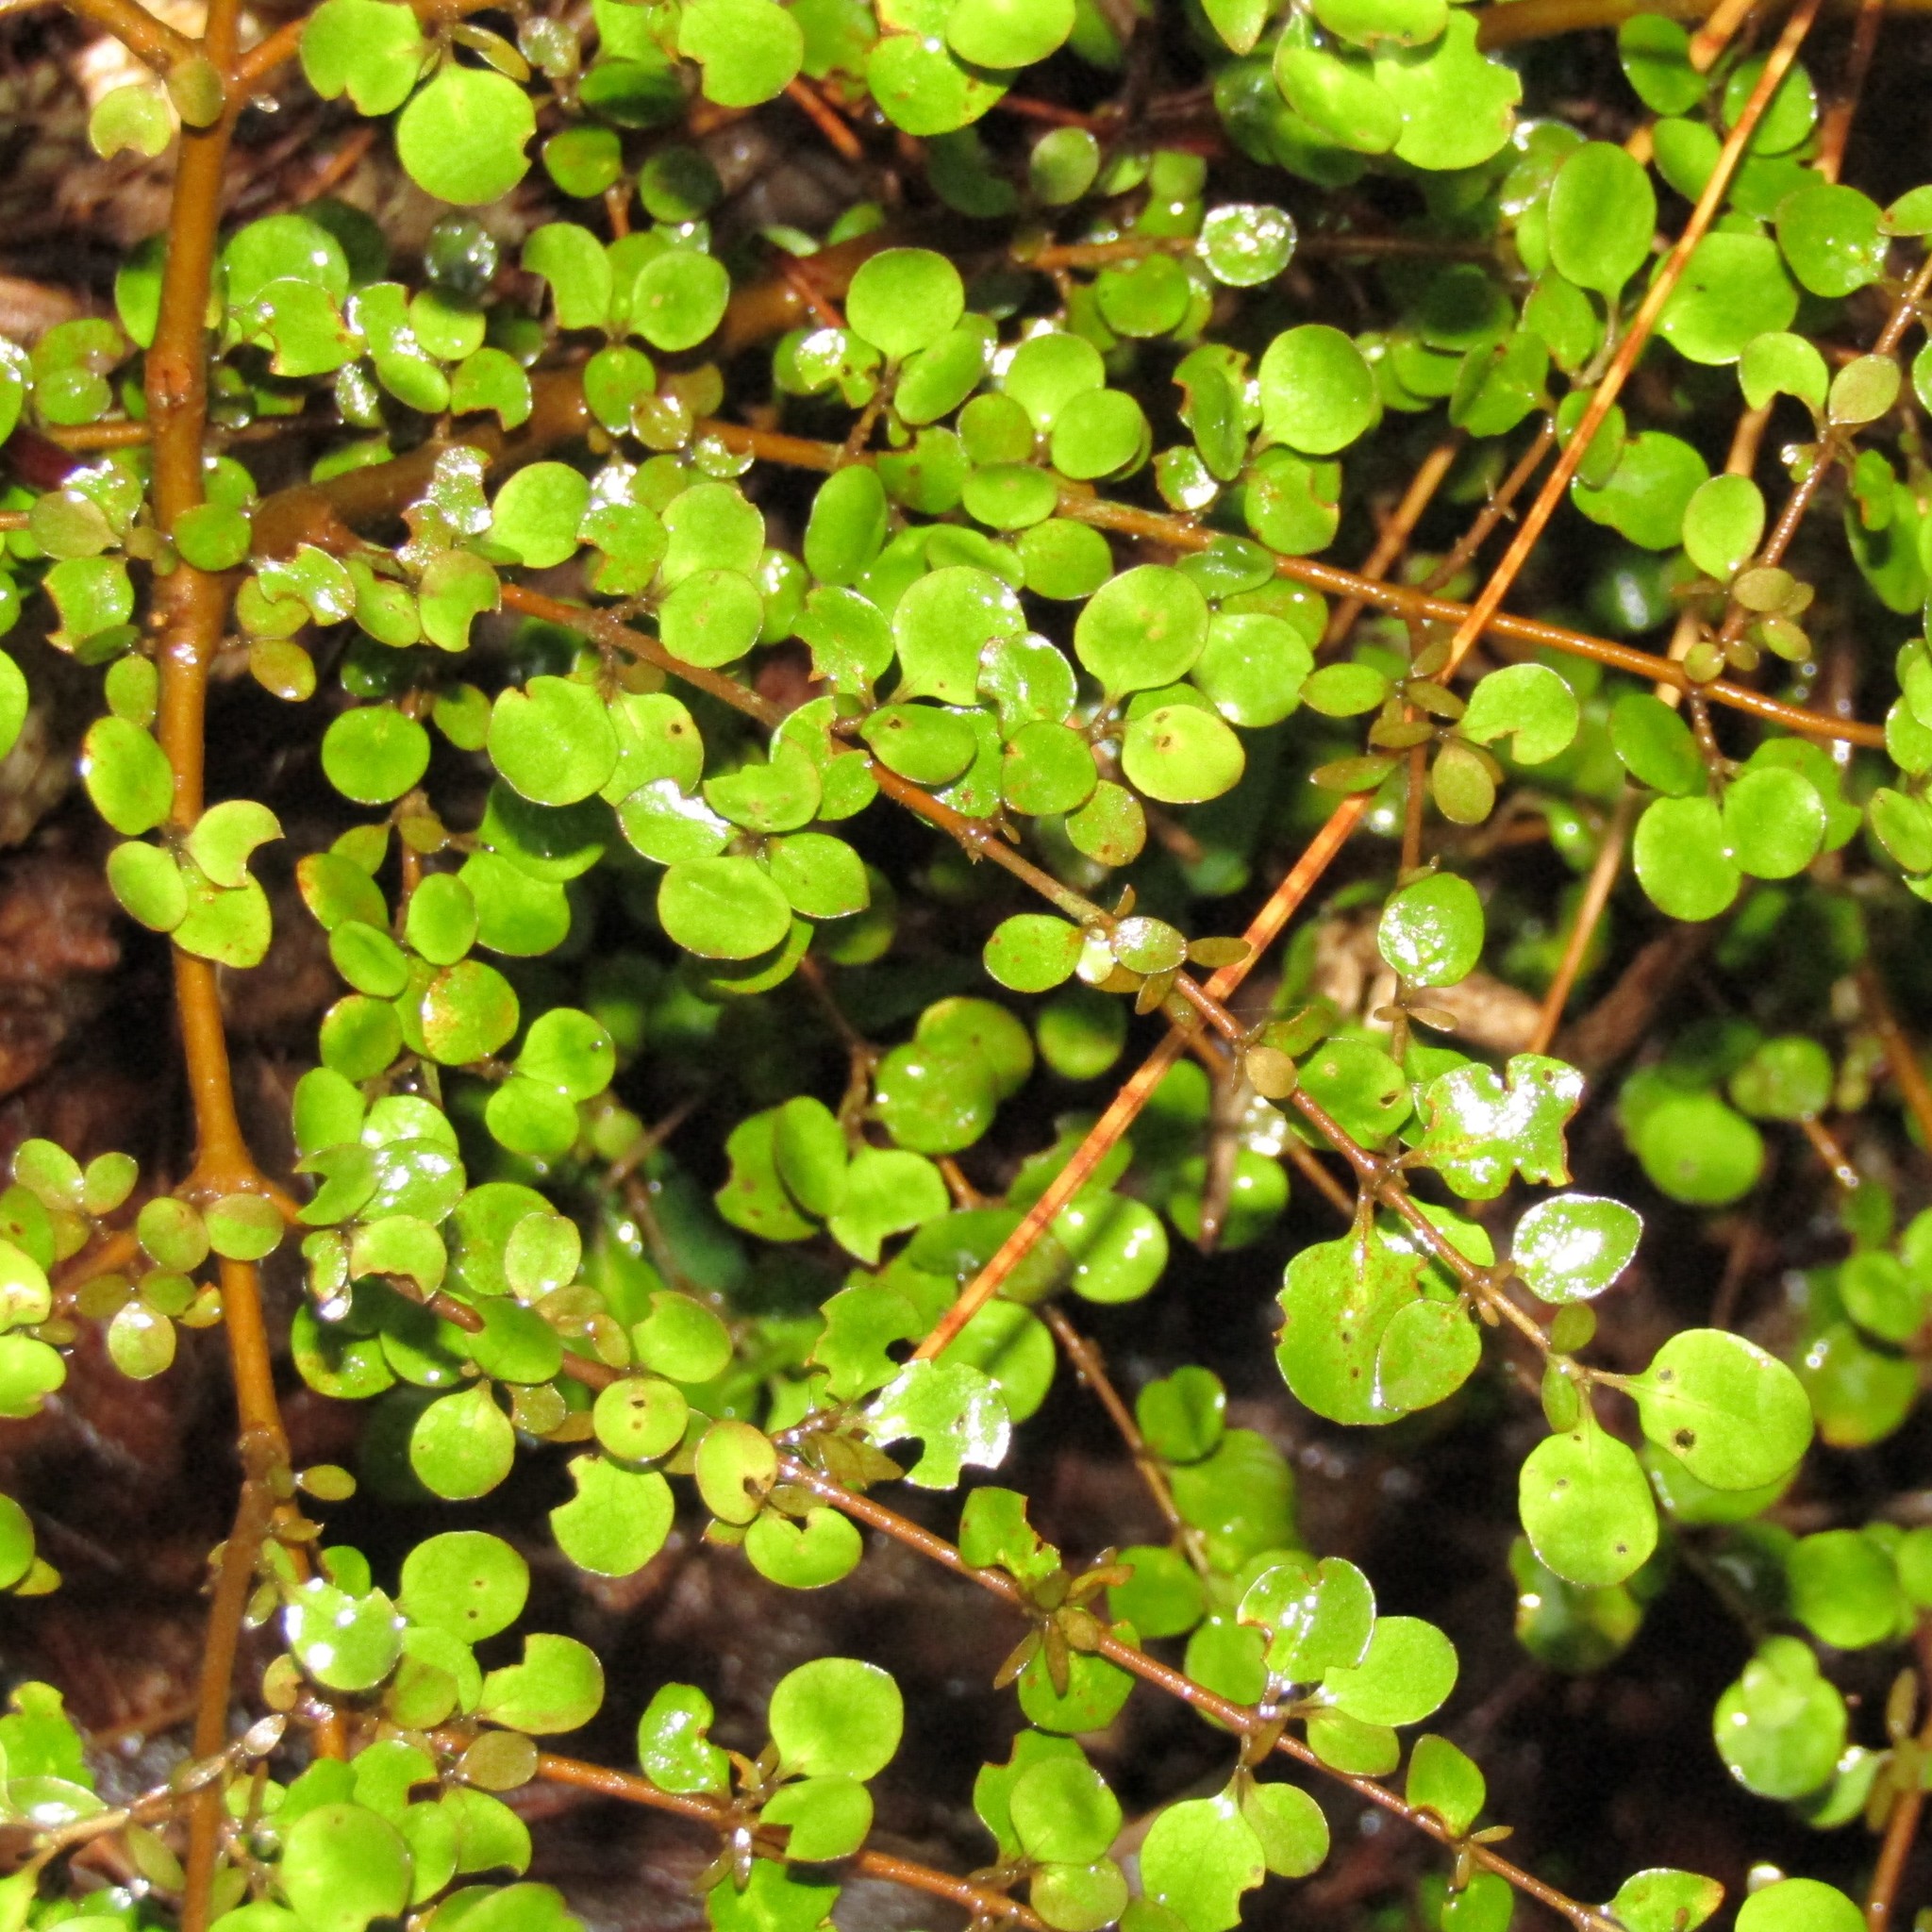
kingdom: Plantae
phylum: Tracheophyta
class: Magnoliopsida
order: Gentianales
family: Rubiaceae
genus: Coprosma
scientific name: Coprosma rhamnoides
